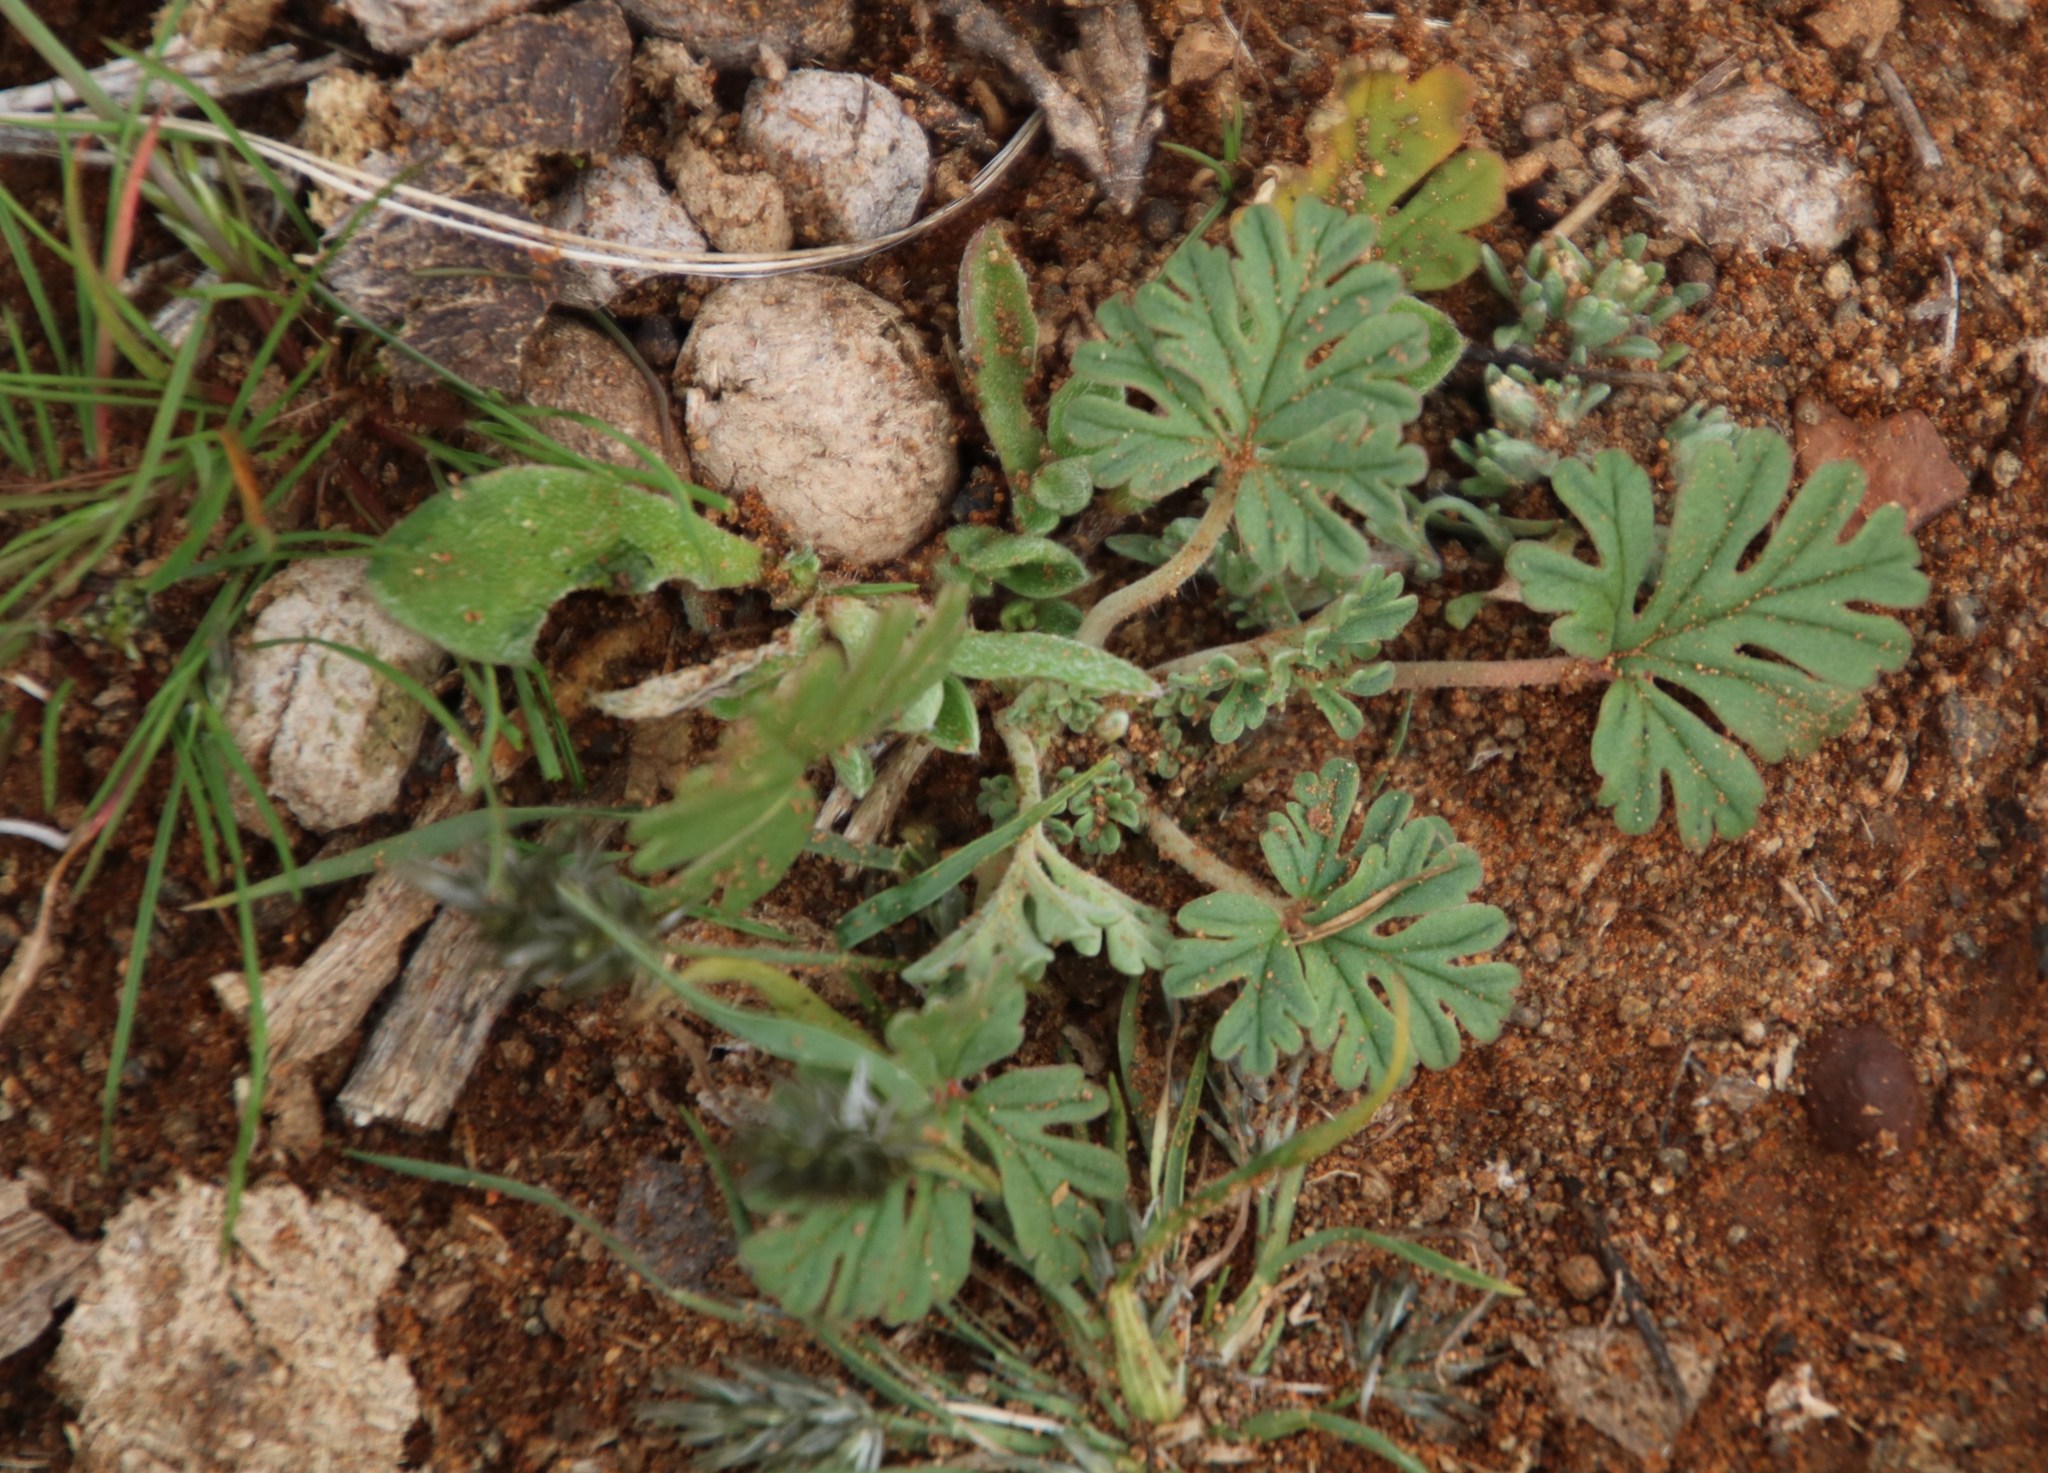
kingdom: Plantae
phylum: Tracheophyta
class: Magnoliopsida
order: Geraniales
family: Geraniaceae
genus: Pelargonium
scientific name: Pelargonium minimum
